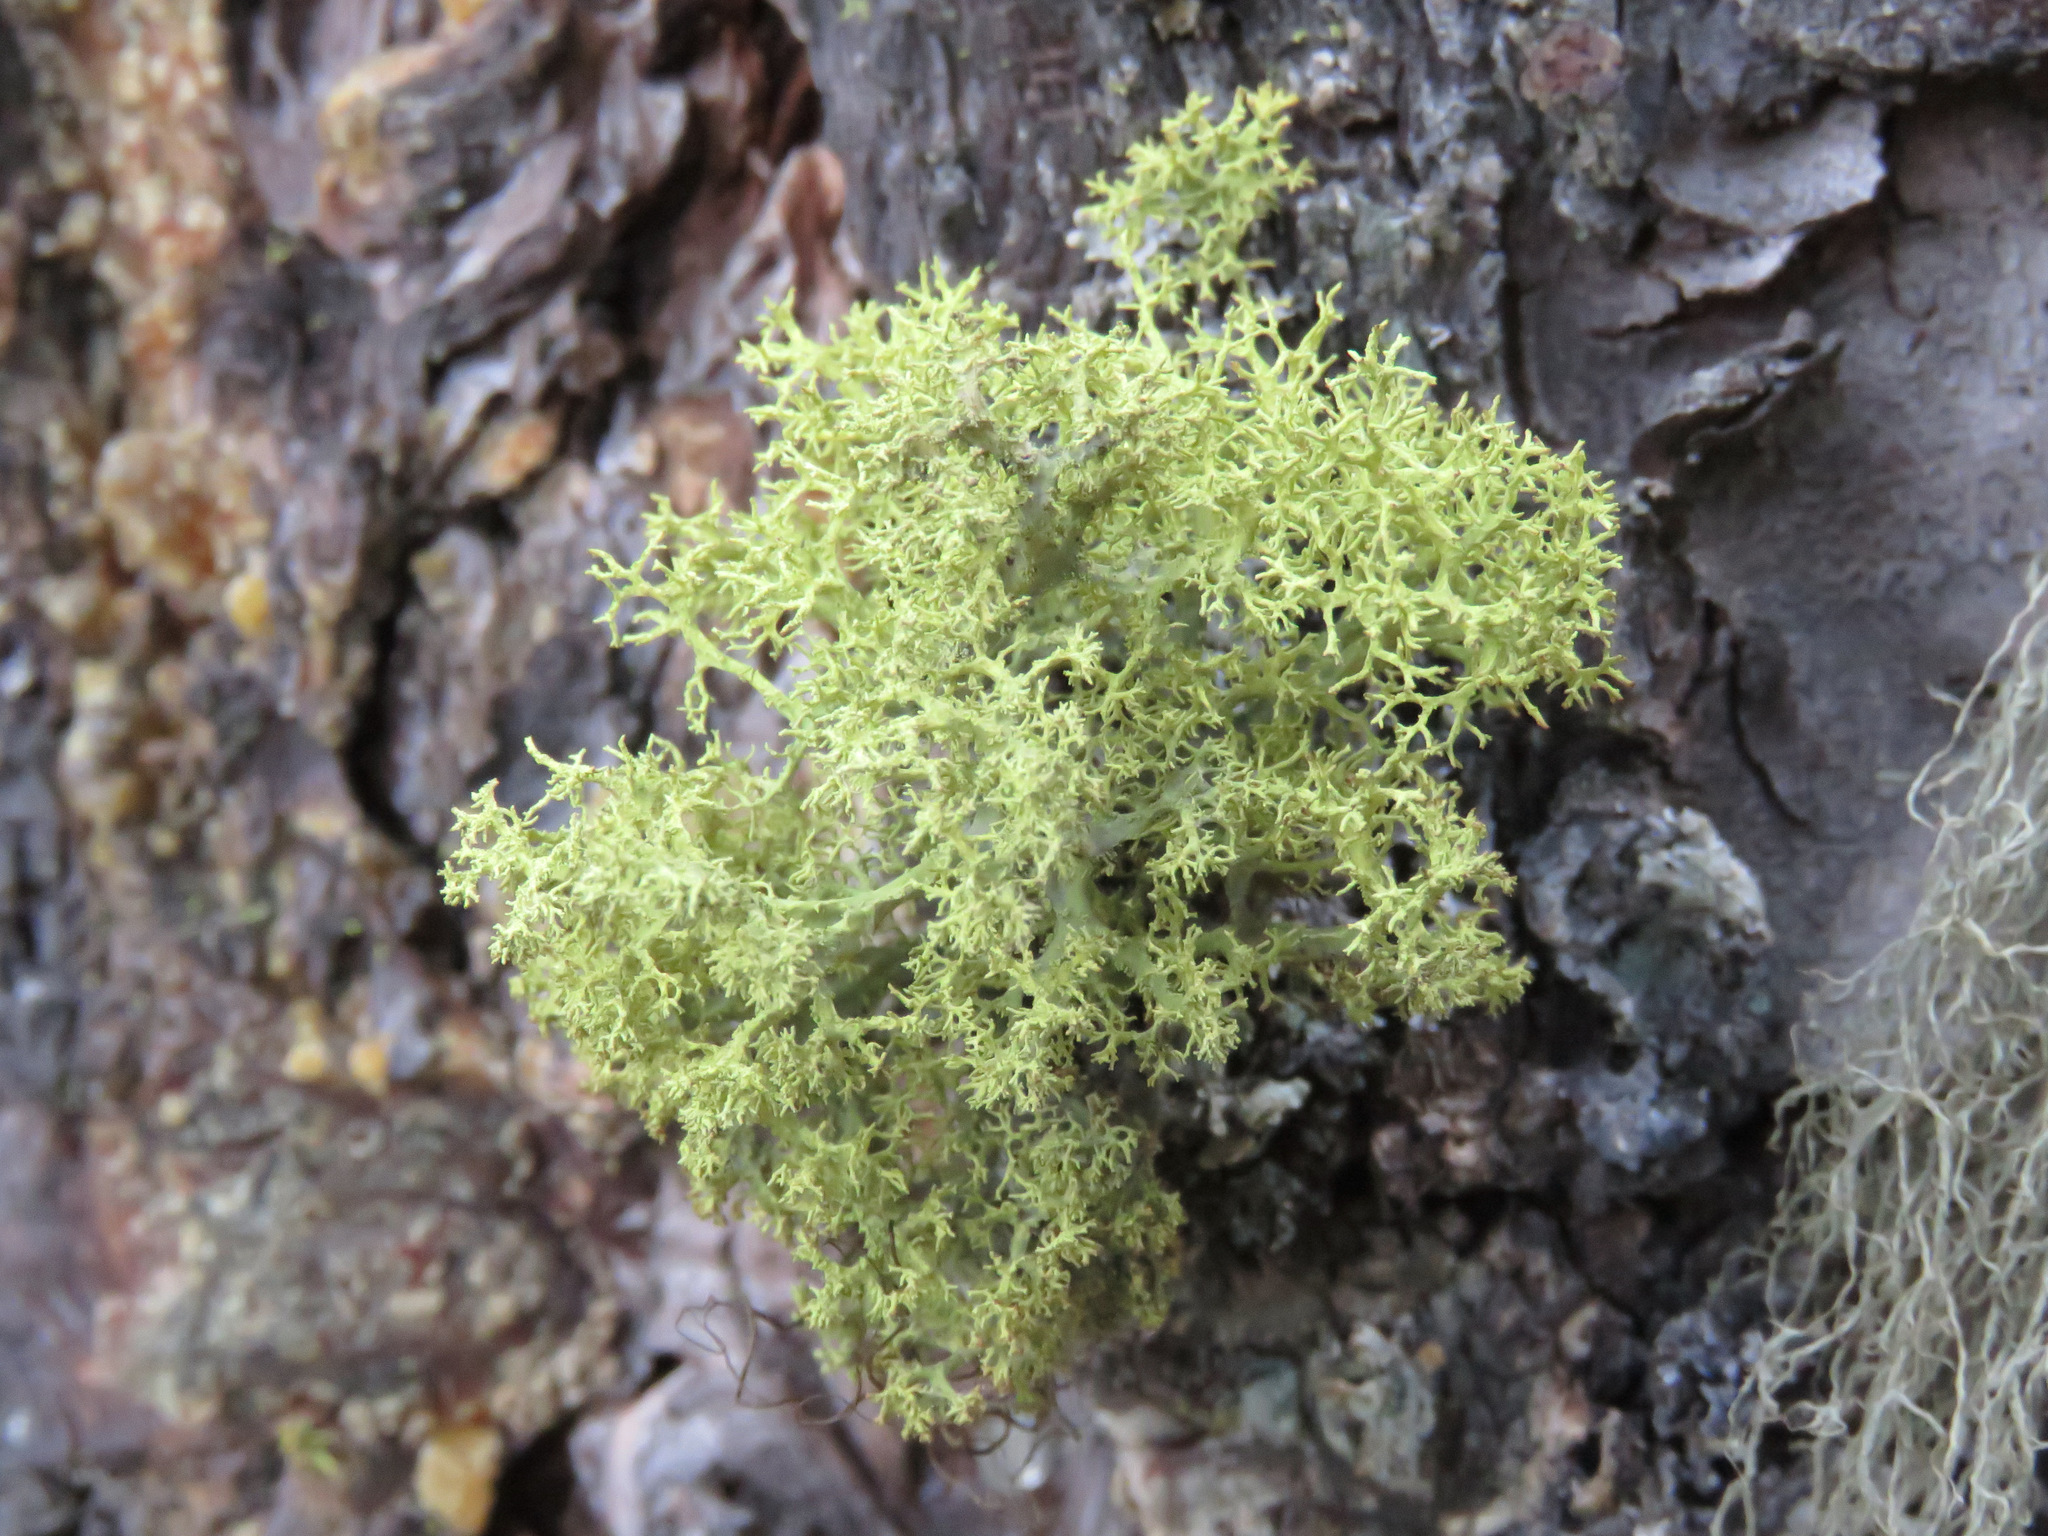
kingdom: Fungi
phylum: Ascomycota
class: Lecanoromycetes
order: Lecanorales
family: Parmeliaceae
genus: Letharia
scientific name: Letharia vulpina
